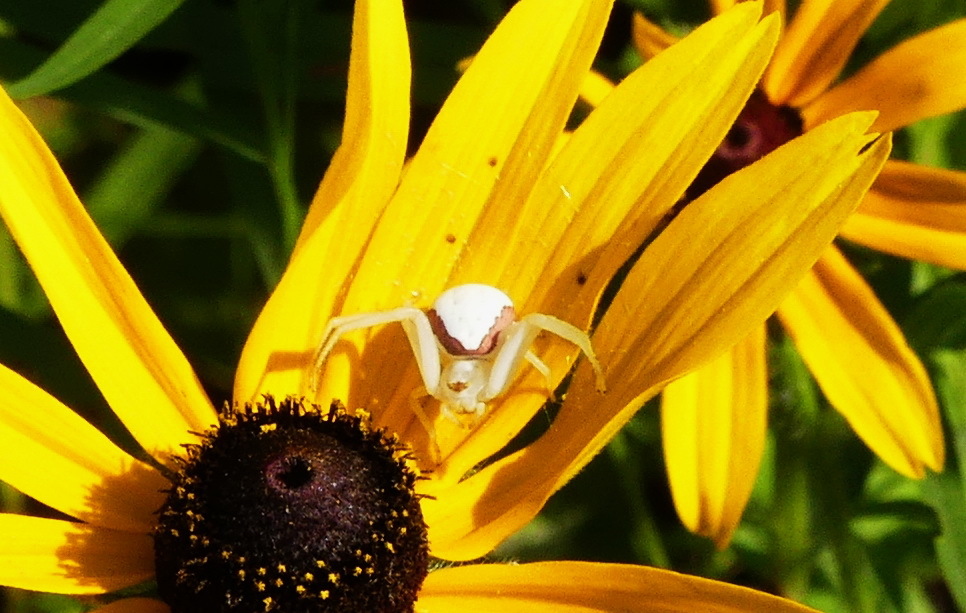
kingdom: Animalia
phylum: Arthropoda
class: Arachnida
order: Araneae
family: Thomisidae
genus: Misumena
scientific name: Misumena vatia
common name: Goldenrod crab spider
